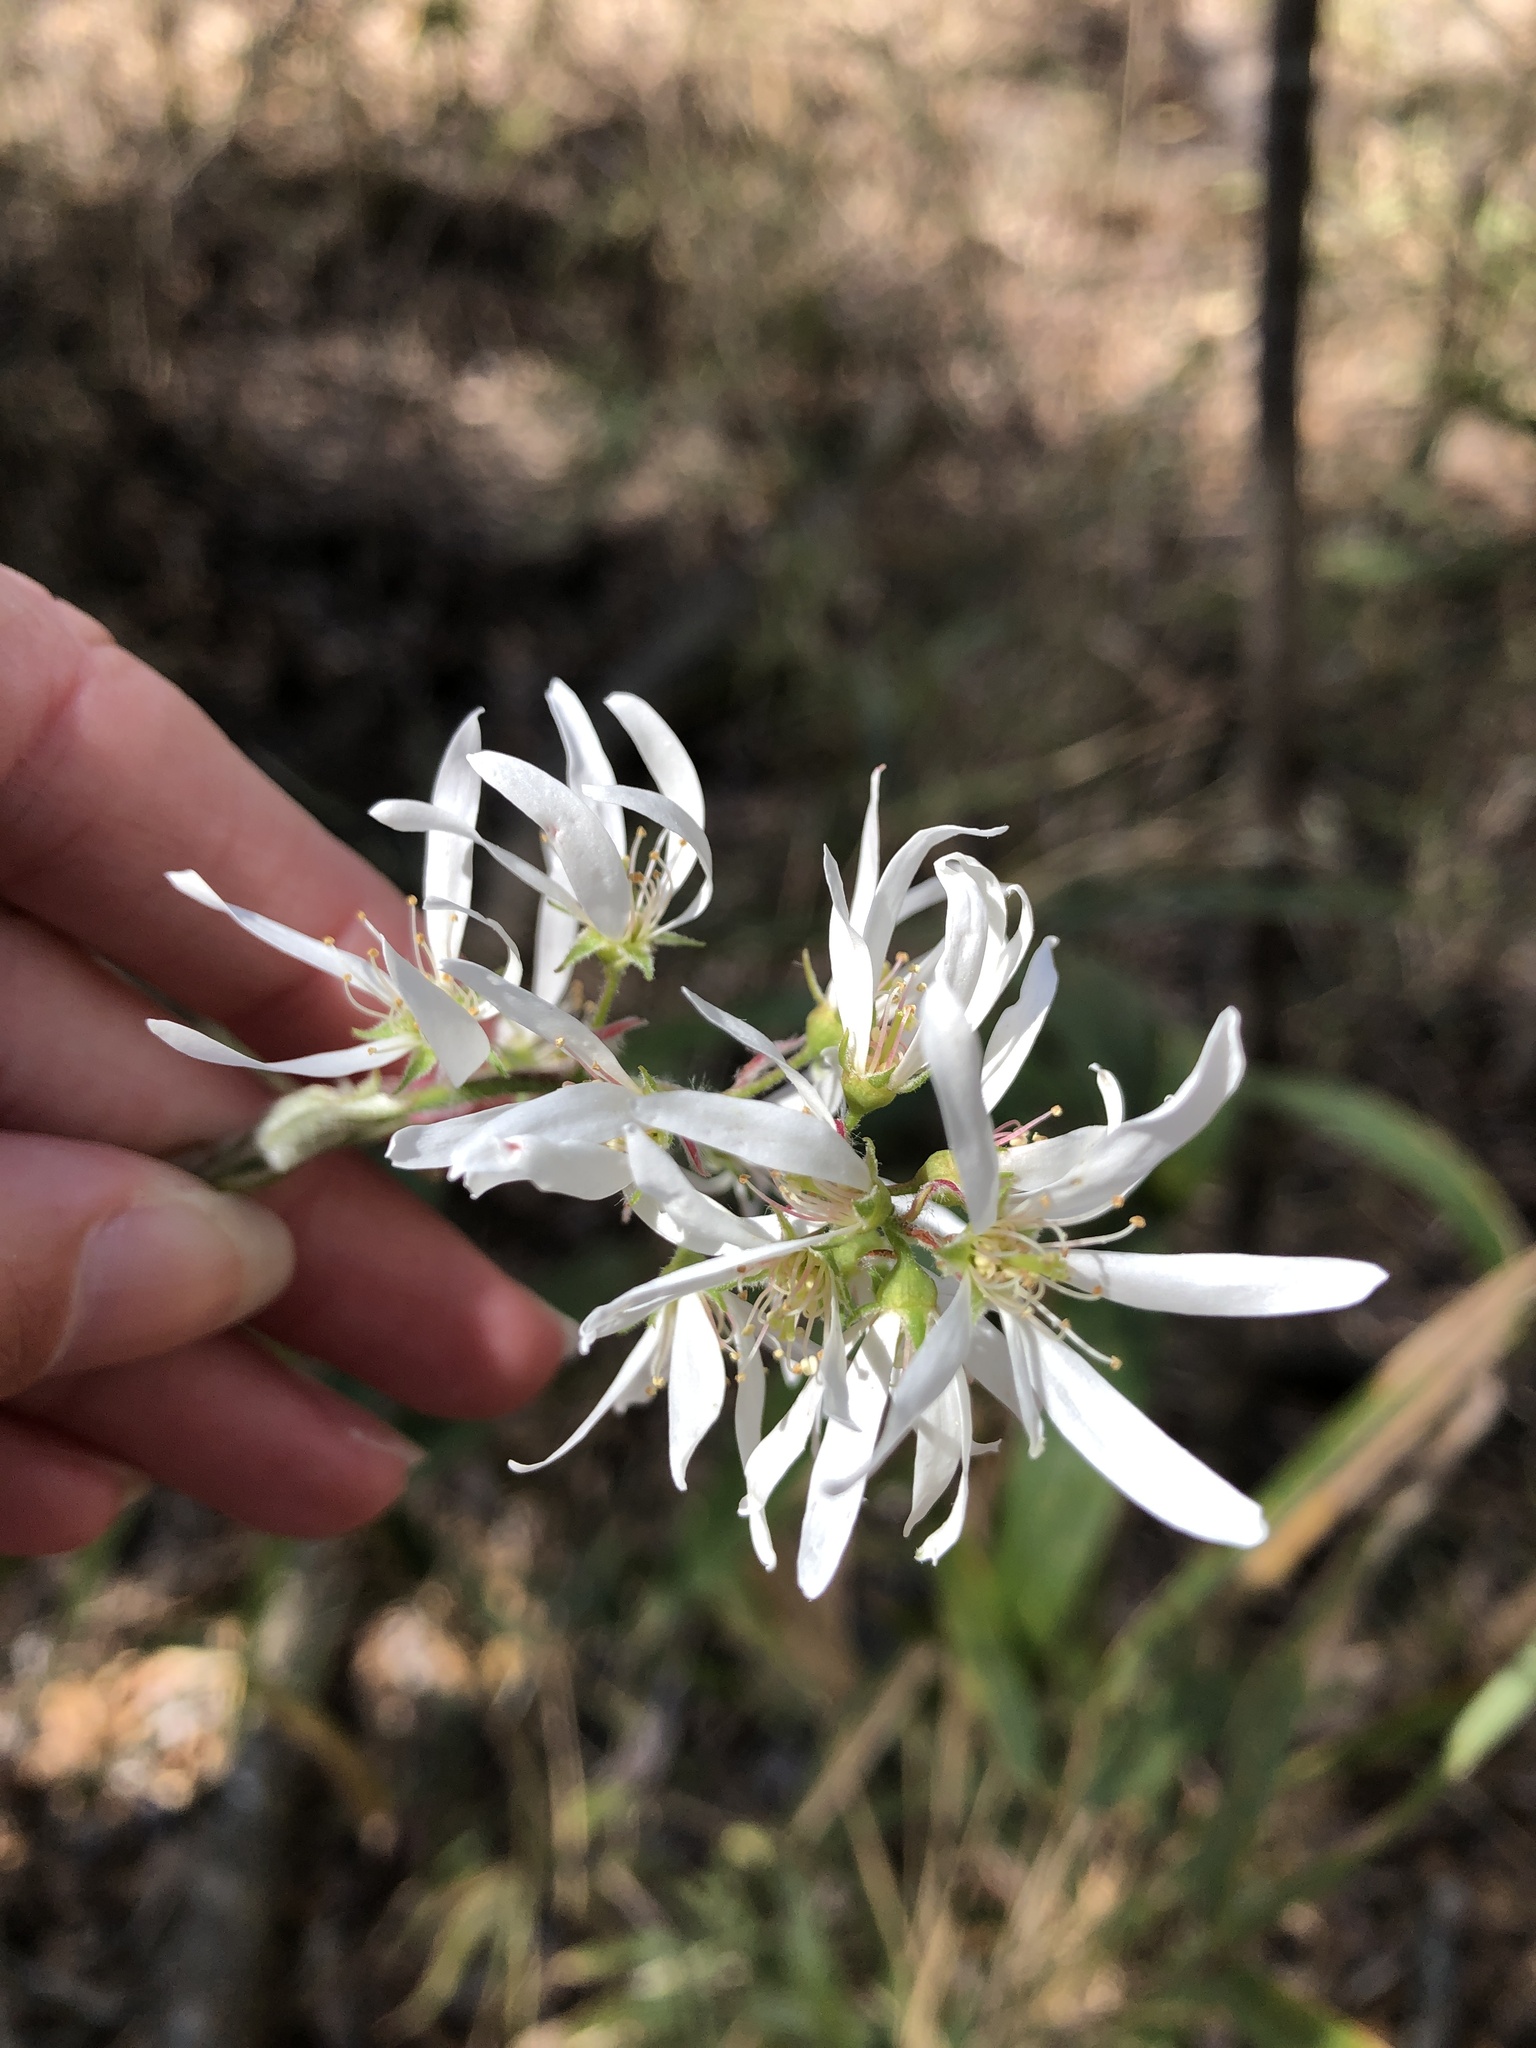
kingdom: Plantae
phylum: Tracheophyta
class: Magnoliopsida
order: Rosales
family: Rosaceae
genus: Amelanchier
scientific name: Amelanchier arborea
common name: Downy serviceberry
